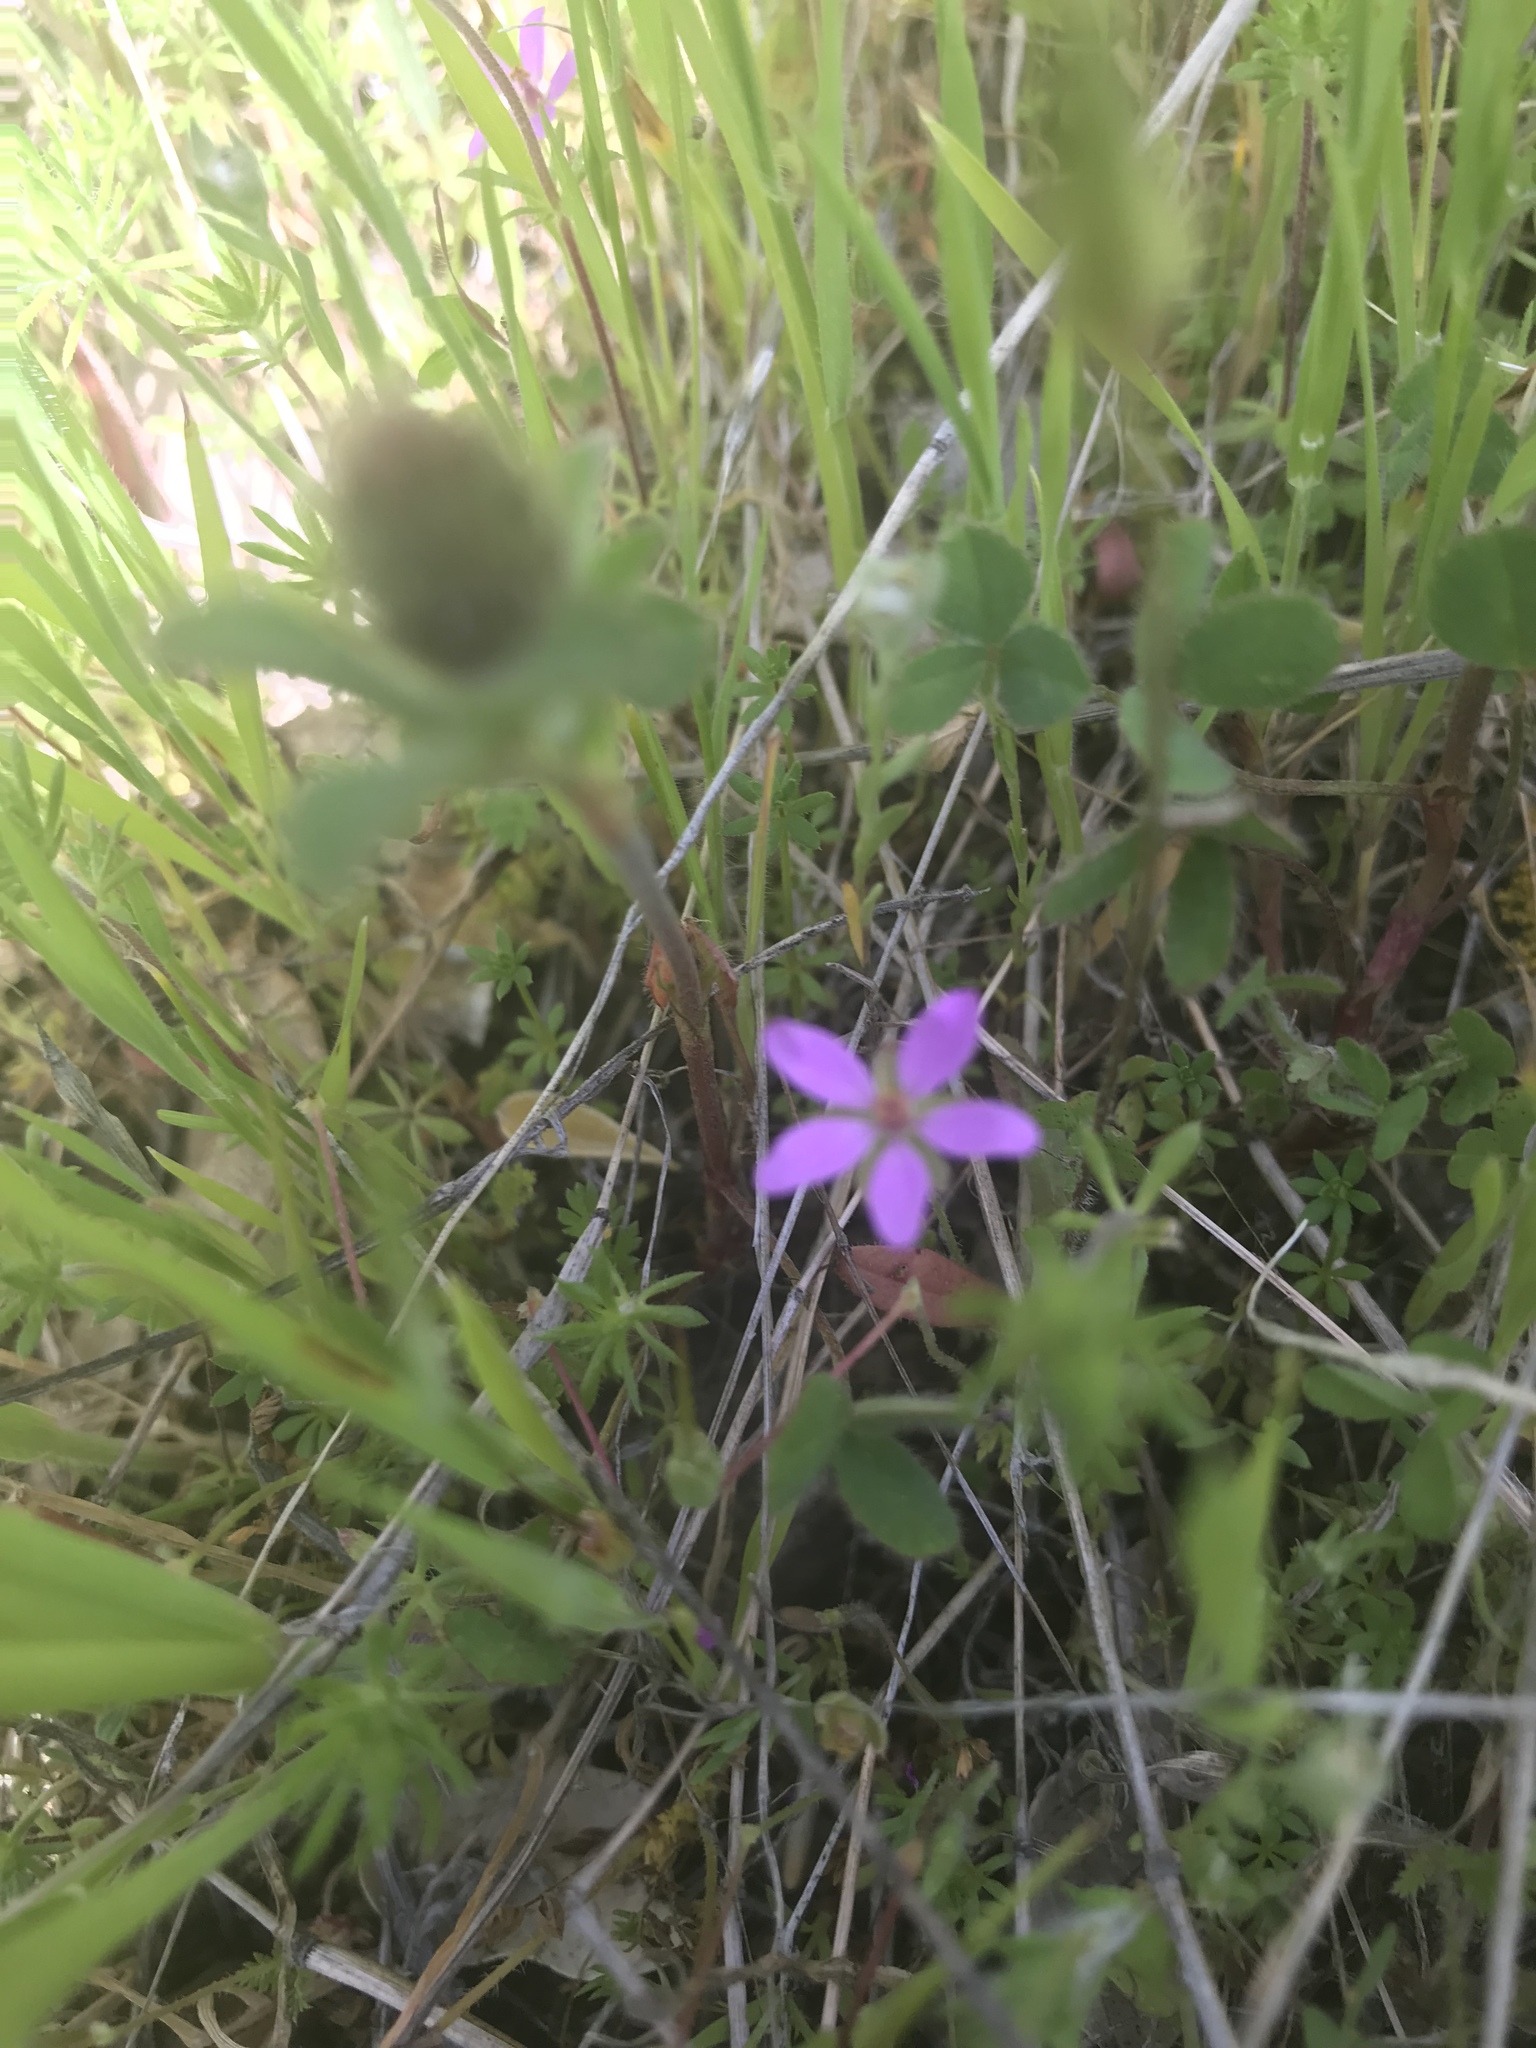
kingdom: Plantae
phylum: Tracheophyta
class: Magnoliopsida
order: Geraniales
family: Geraniaceae
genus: Erodium
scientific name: Erodium cicutarium
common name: Common stork's-bill
